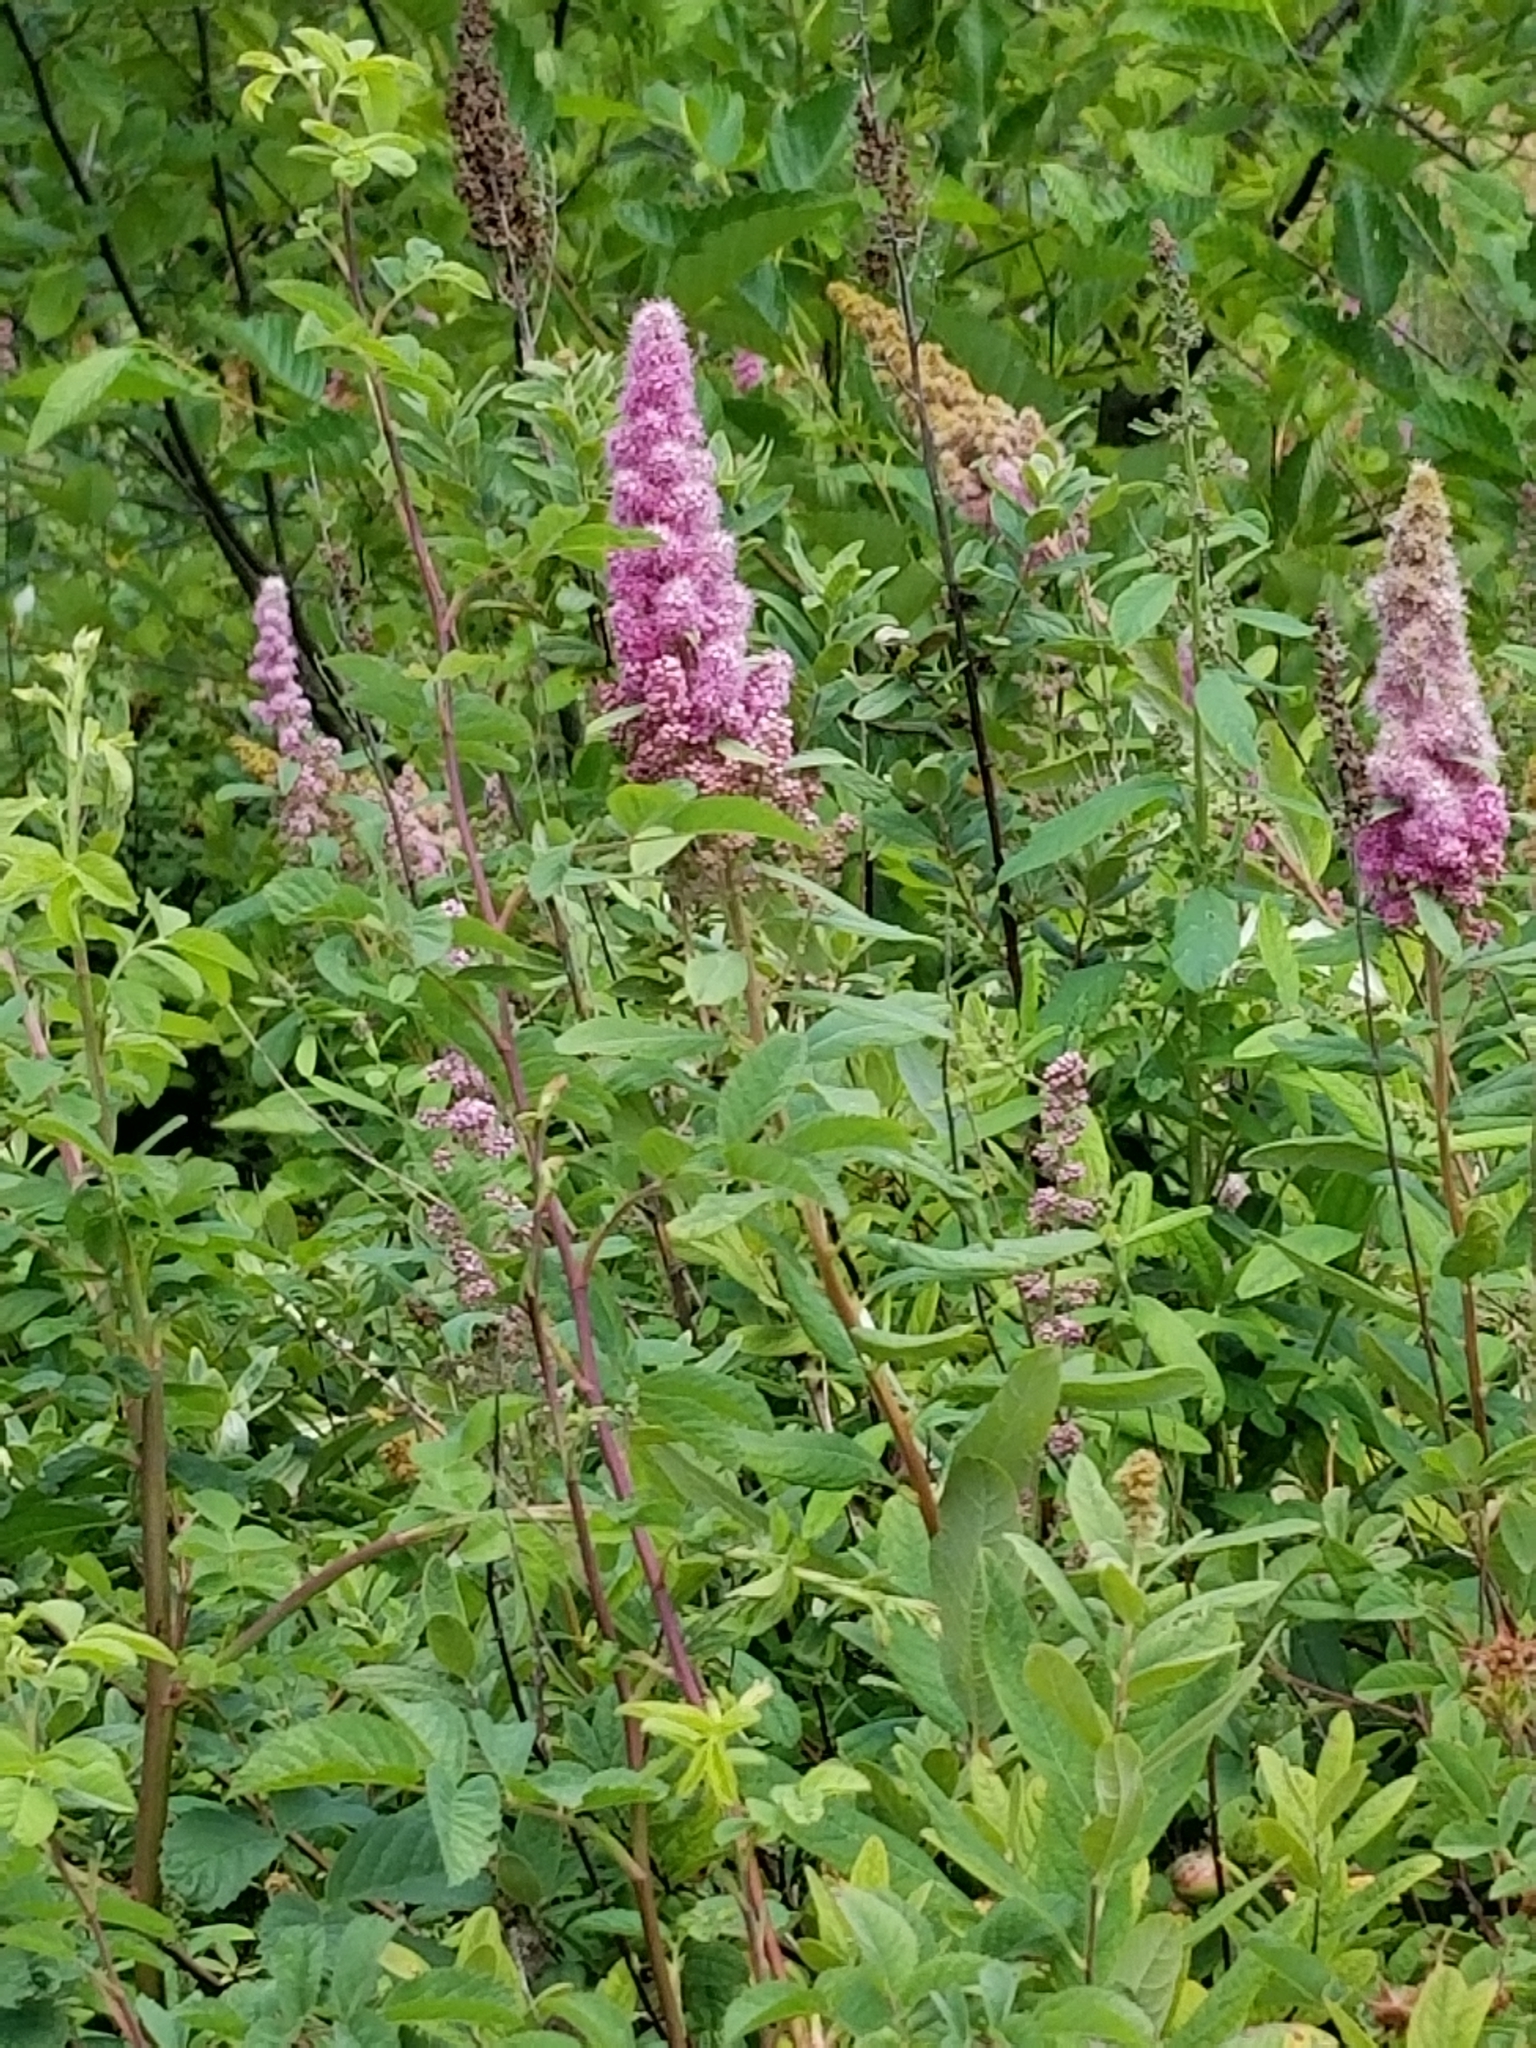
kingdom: Plantae
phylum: Tracheophyta
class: Magnoliopsida
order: Rosales
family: Rosaceae
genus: Spiraea
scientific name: Spiraea douglasii
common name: Steeplebush
